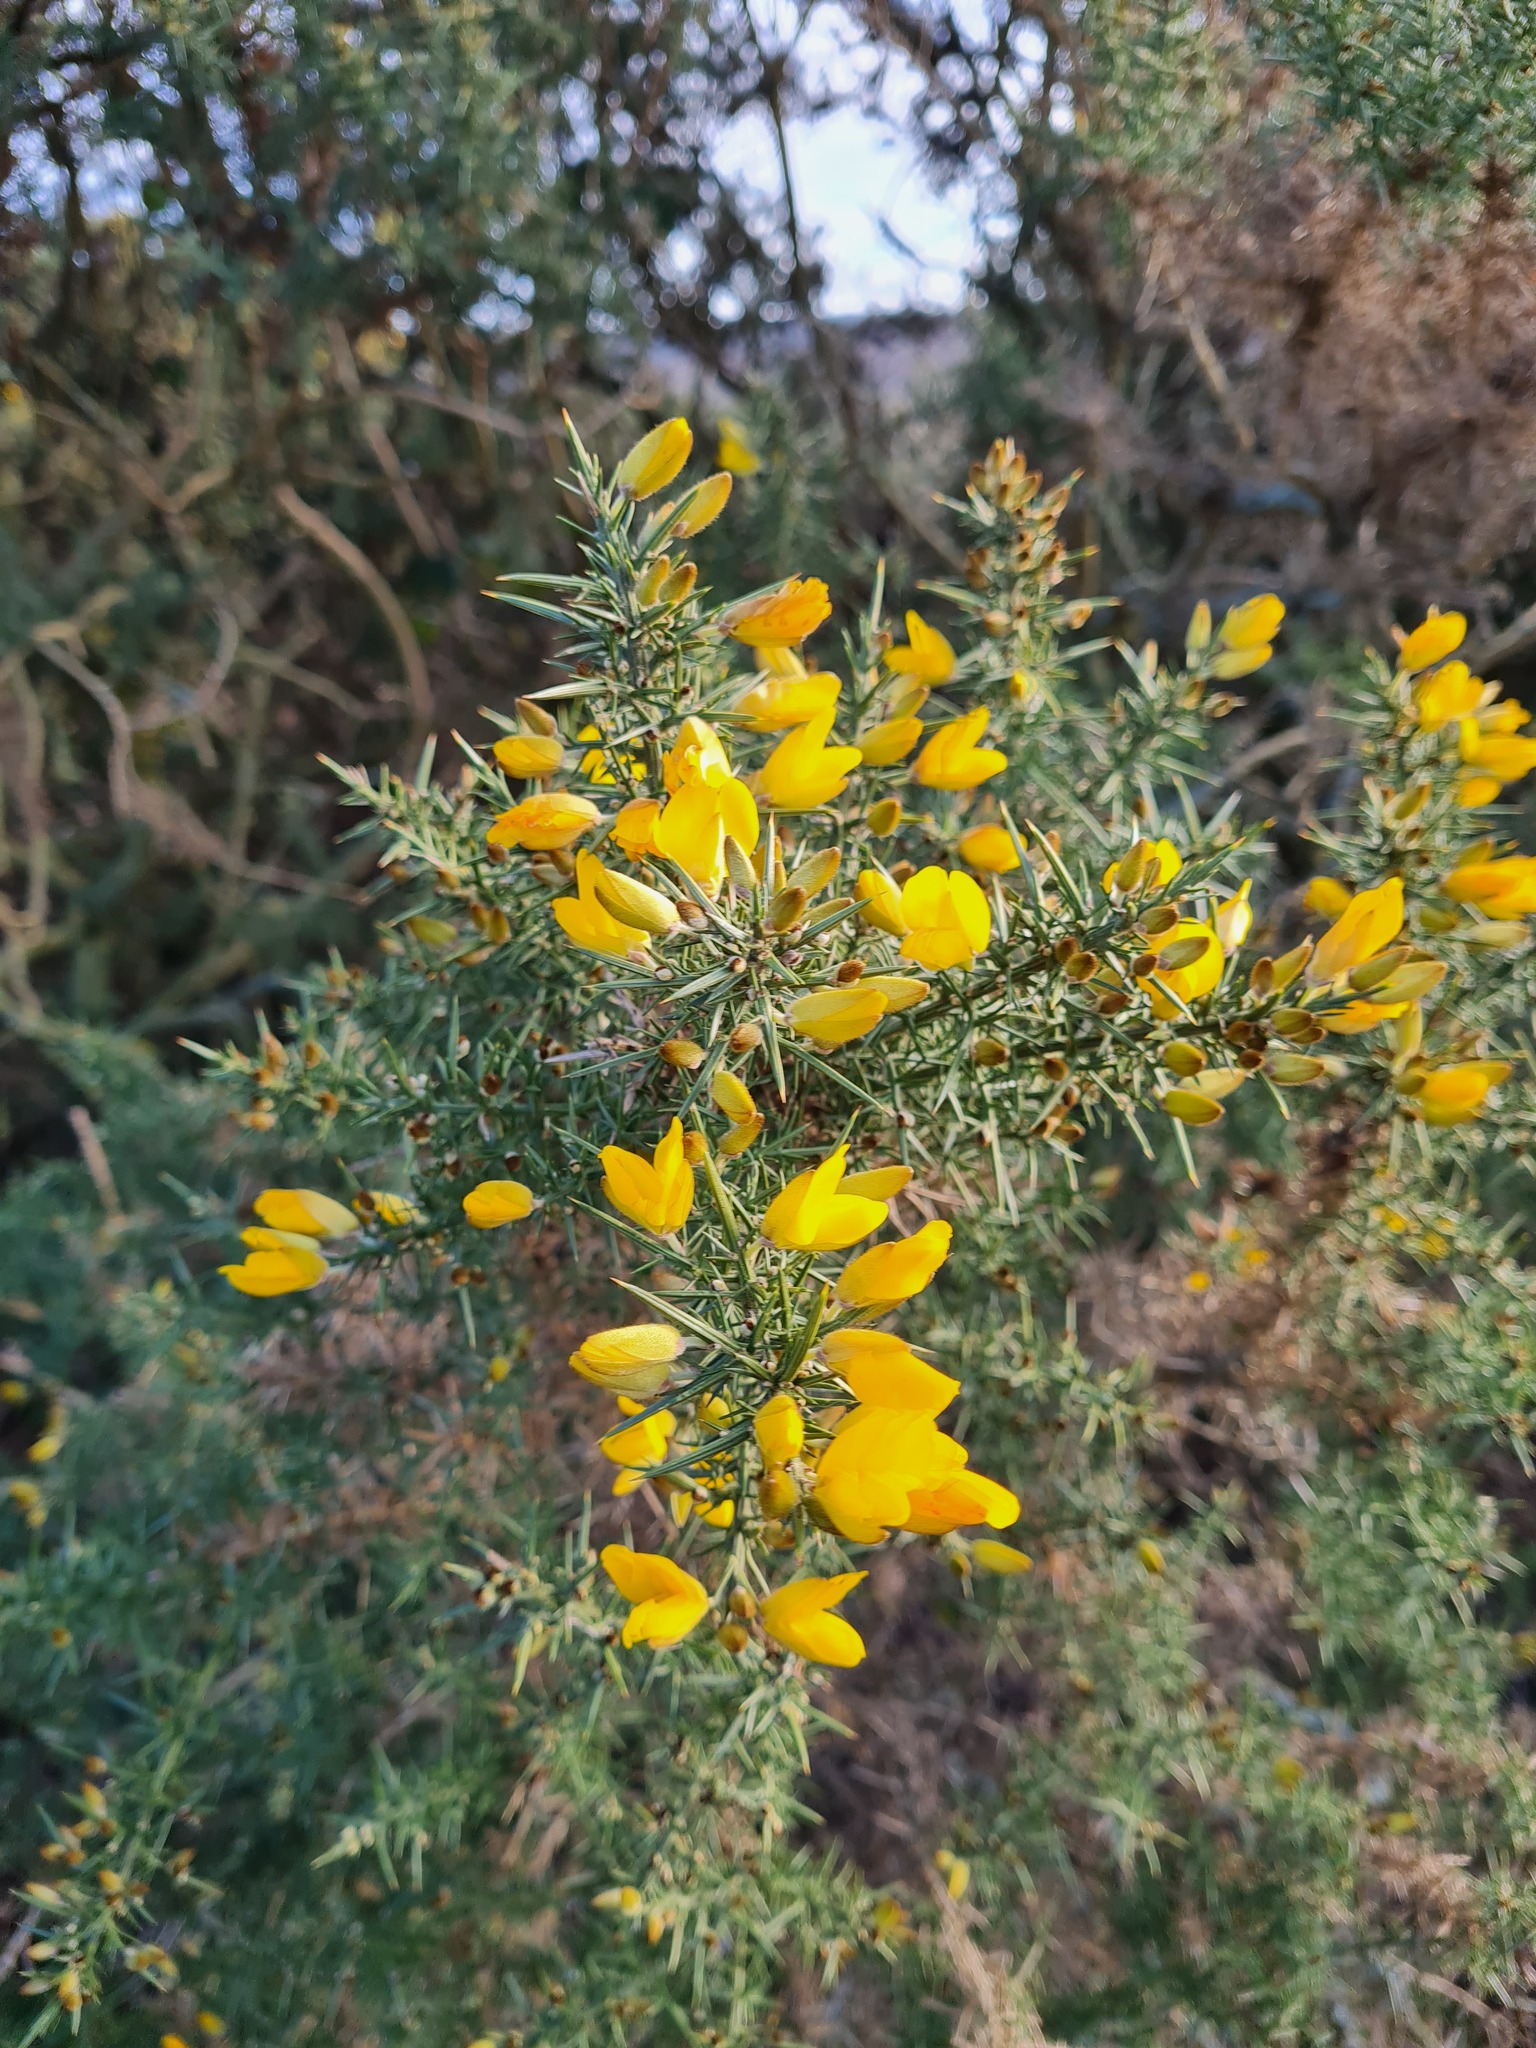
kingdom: Plantae
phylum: Tracheophyta
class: Magnoliopsida
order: Fabales
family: Fabaceae
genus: Ulex
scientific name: Ulex europaeus
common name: Common gorse
